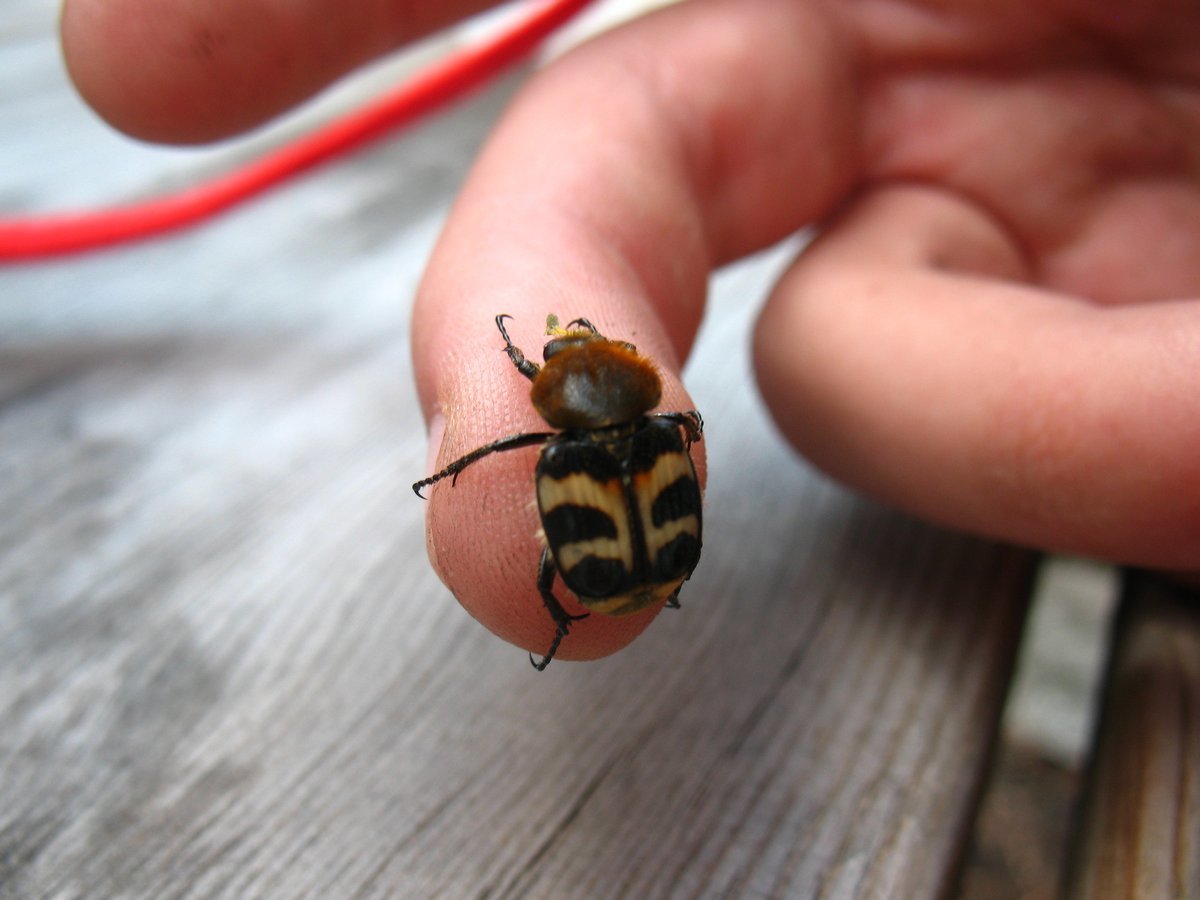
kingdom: Animalia
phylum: Arthropoda
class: Insecta
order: Coleoptera
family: Scarabaeidae
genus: Trichius
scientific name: Trichius fasciatus
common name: Bee beetle
